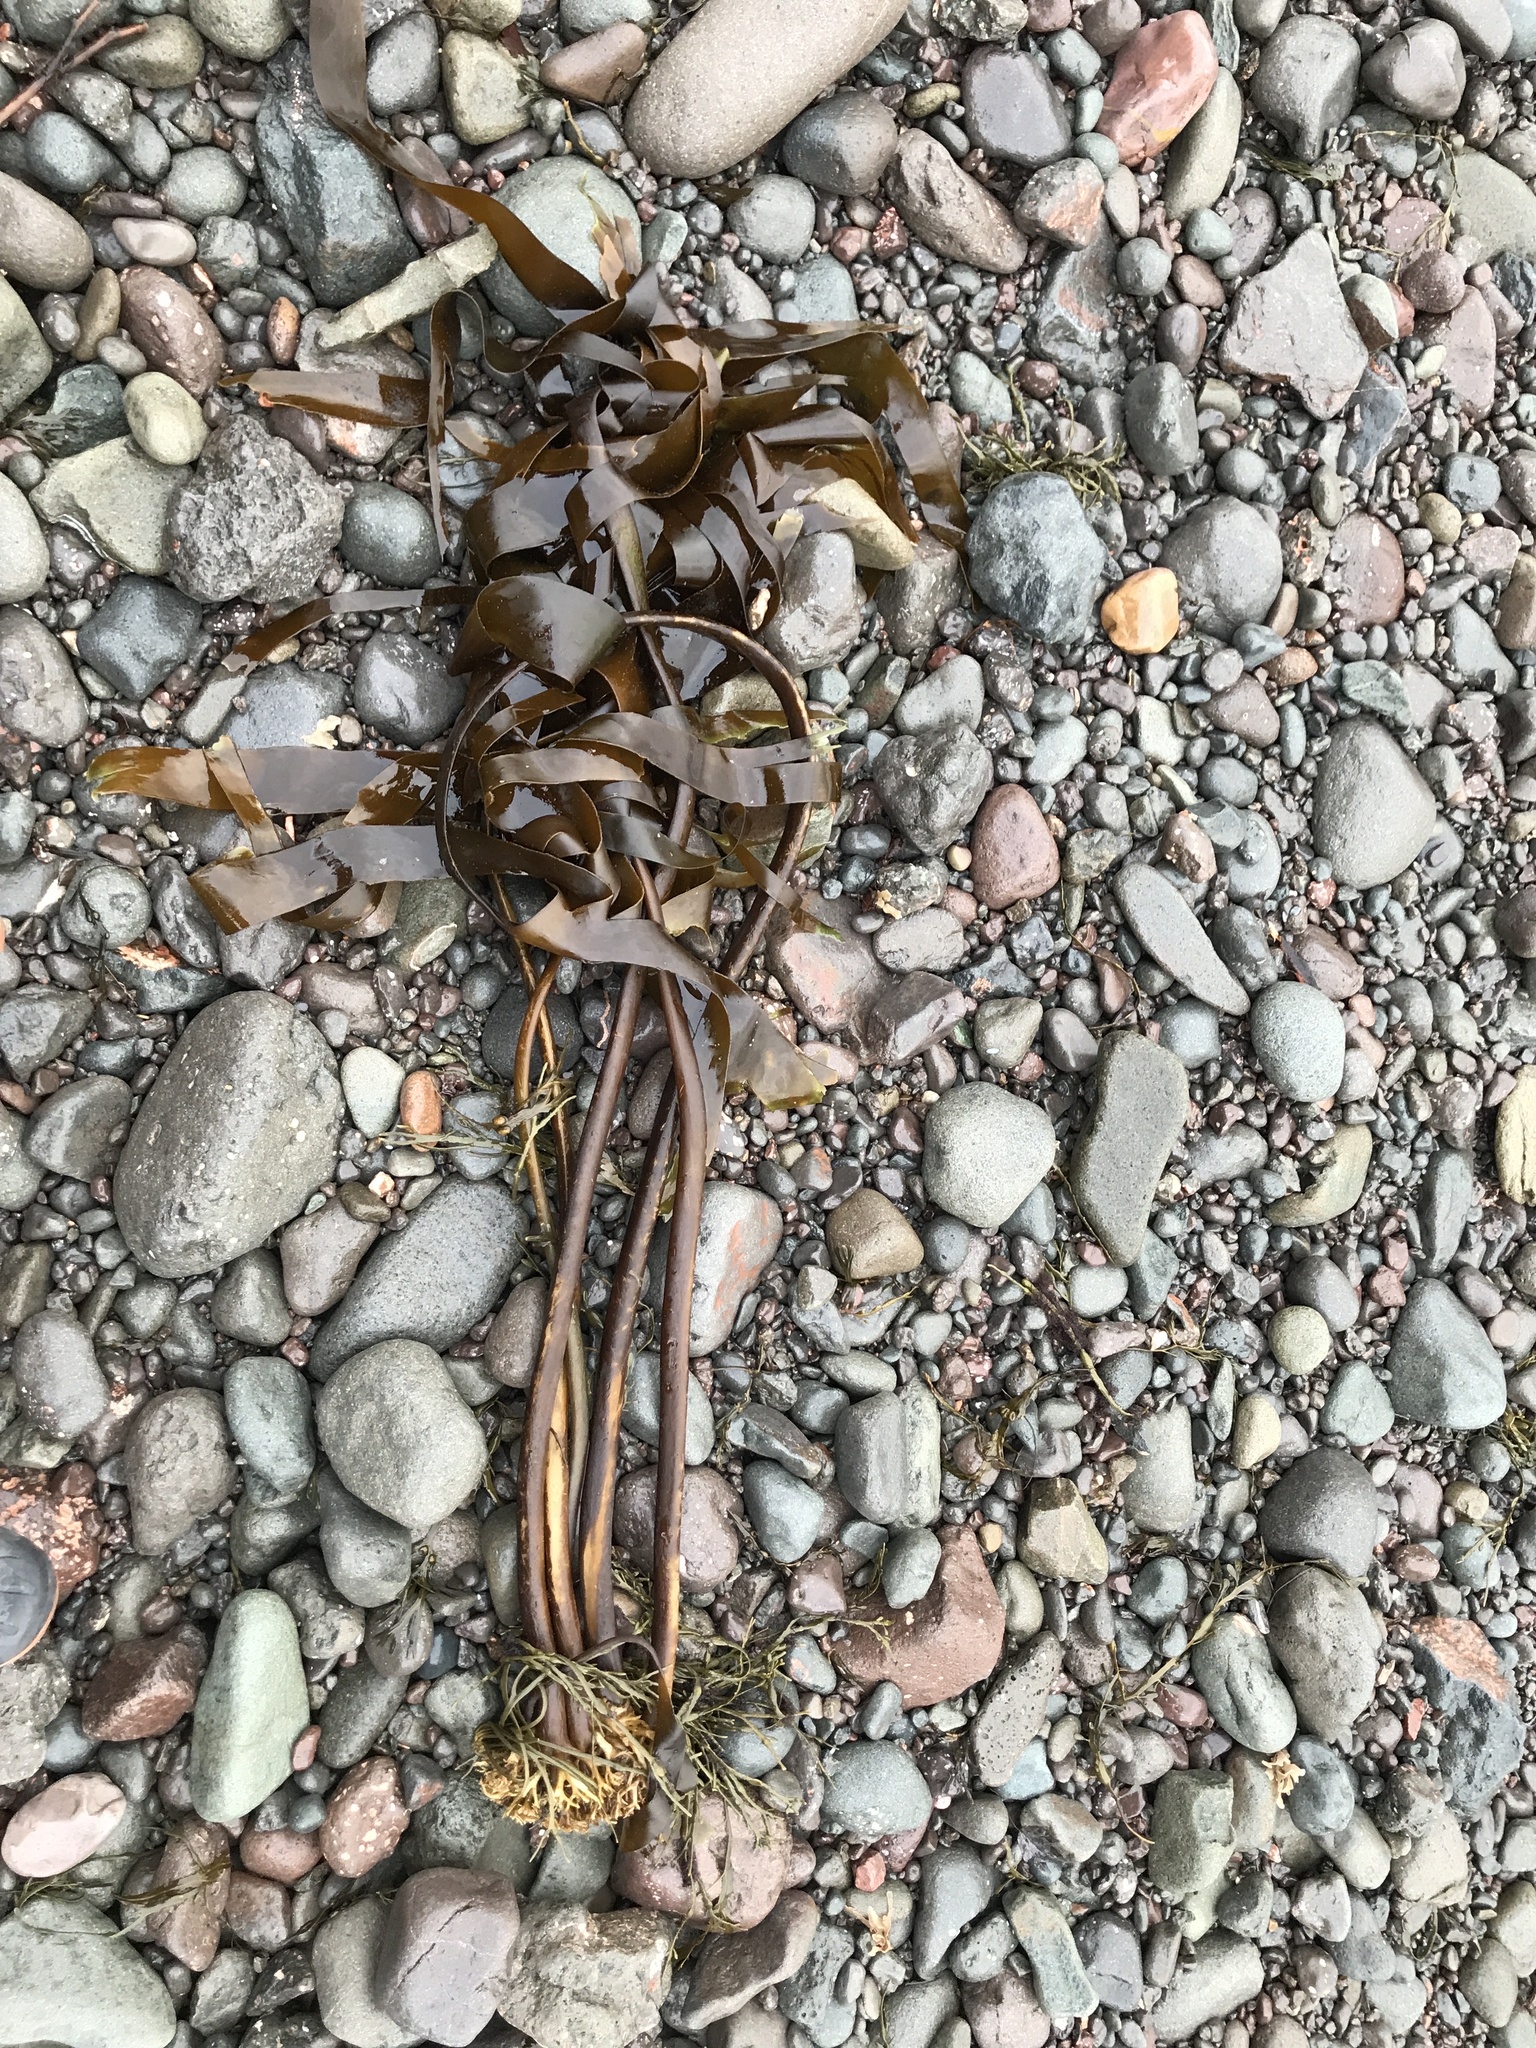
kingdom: Chromista
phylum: Ochrophyta
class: Phaeophyceae
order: Laminariales
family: Laminariaceae
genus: Laminaria
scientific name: Laminaria digitata
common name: Oarweed
